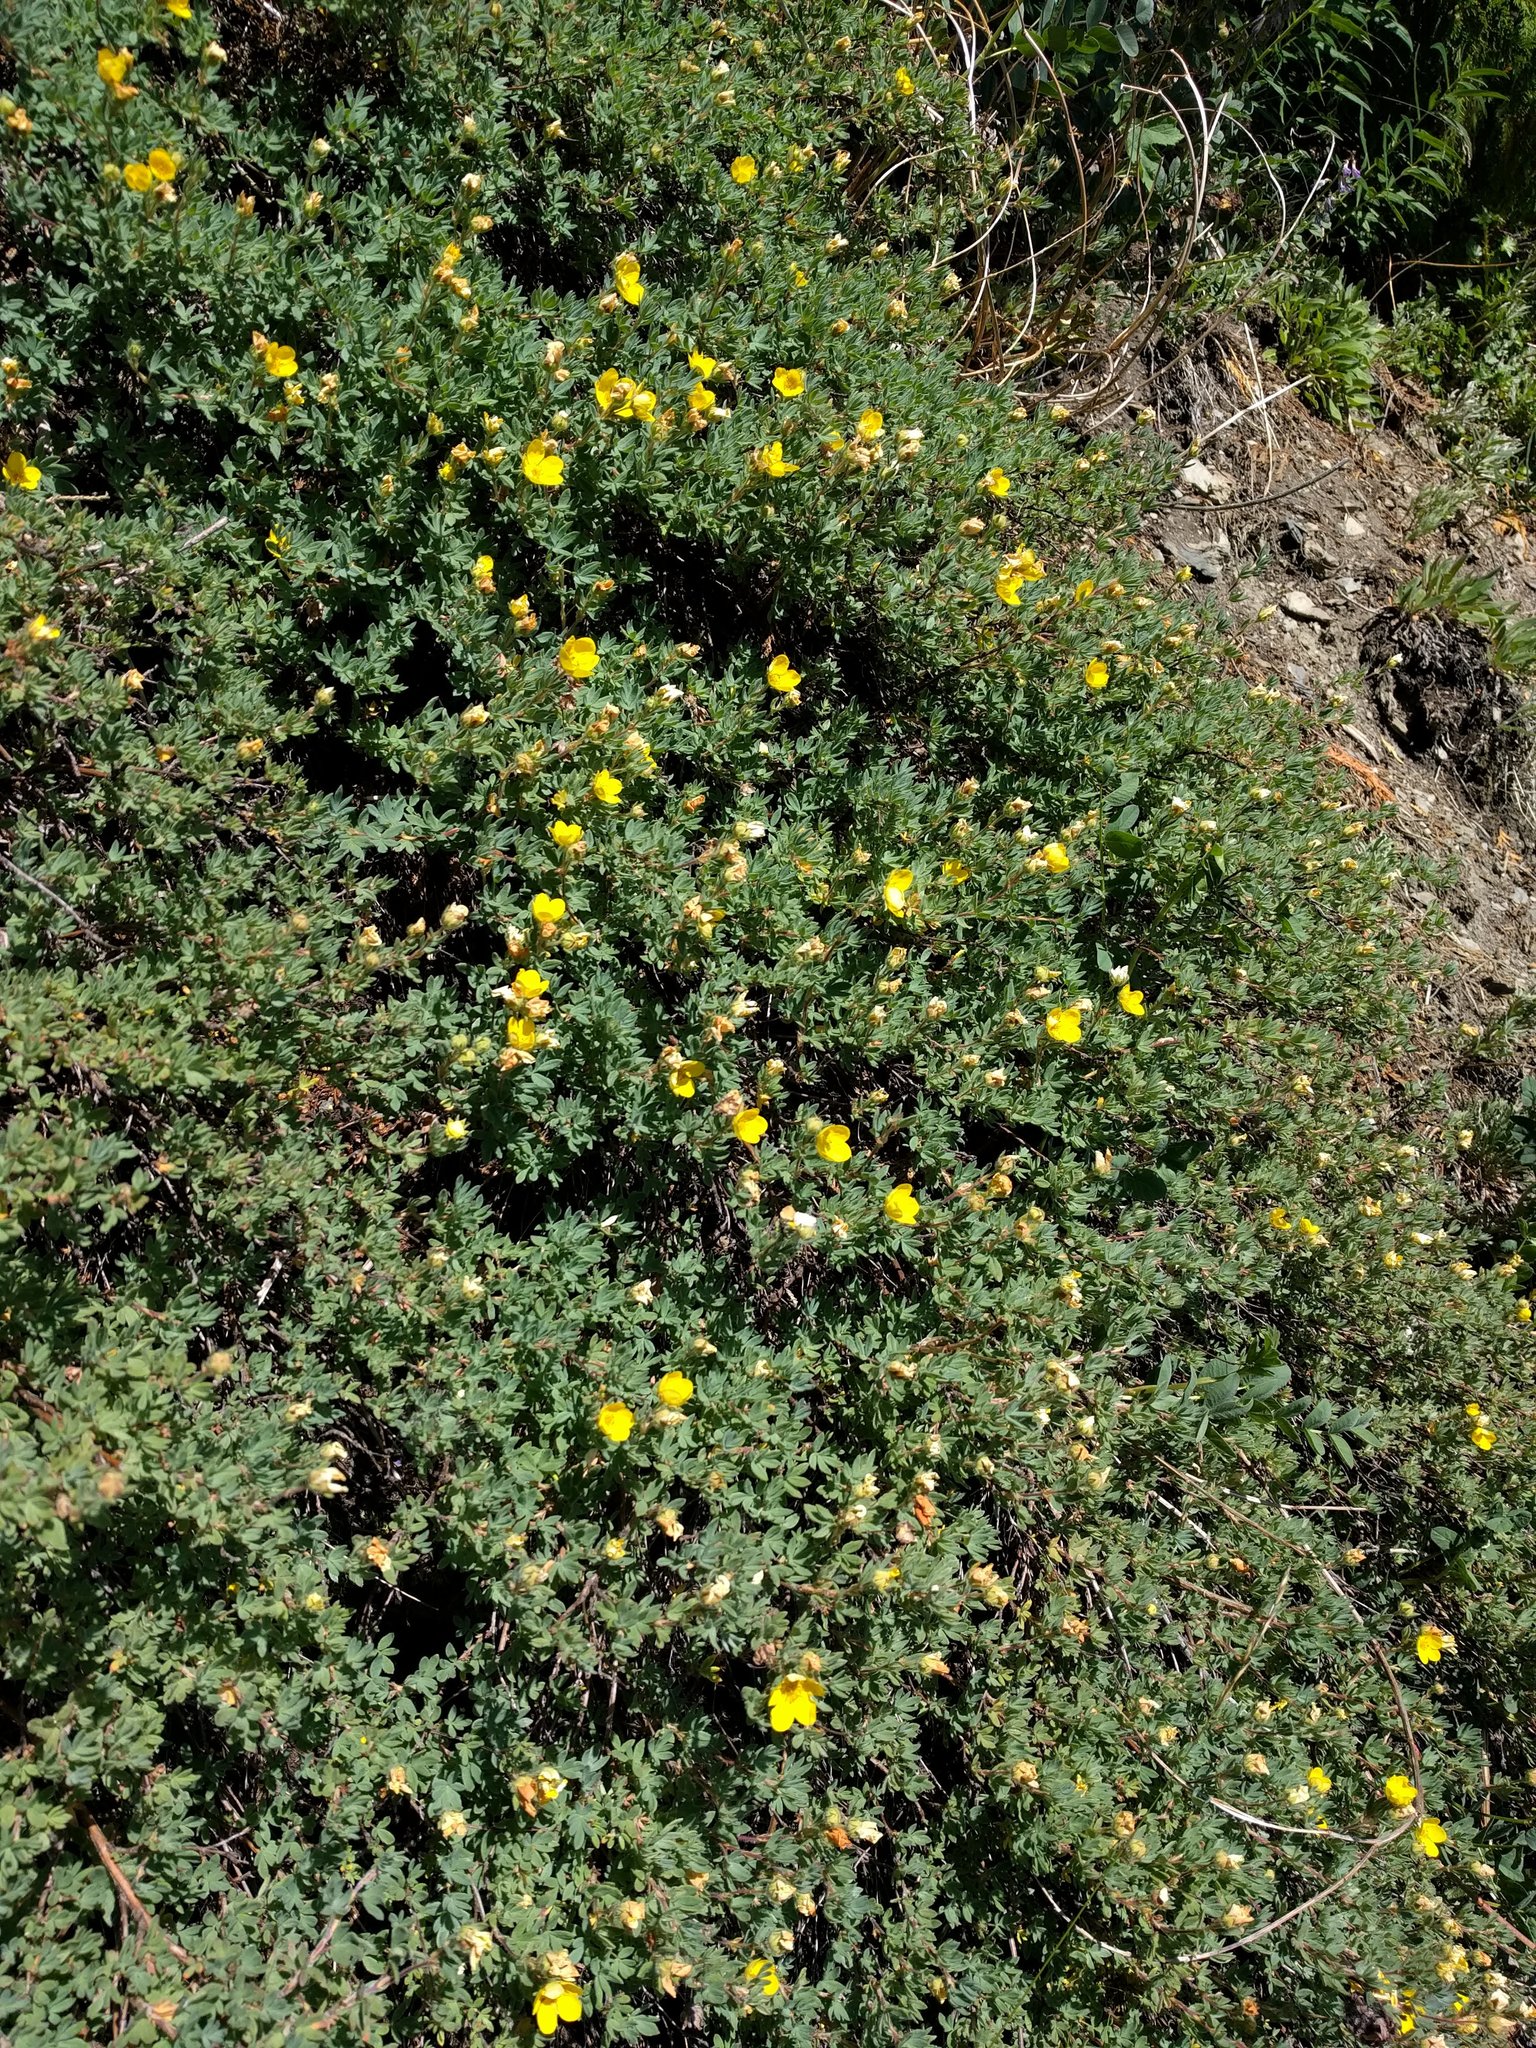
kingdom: Plantae
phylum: Tracheophyta
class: Magnoliopsida
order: Rosales
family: Rosaceae
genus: Dasiphora
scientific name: Dasiphora fruticosa
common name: Shrubby cinquefoil
